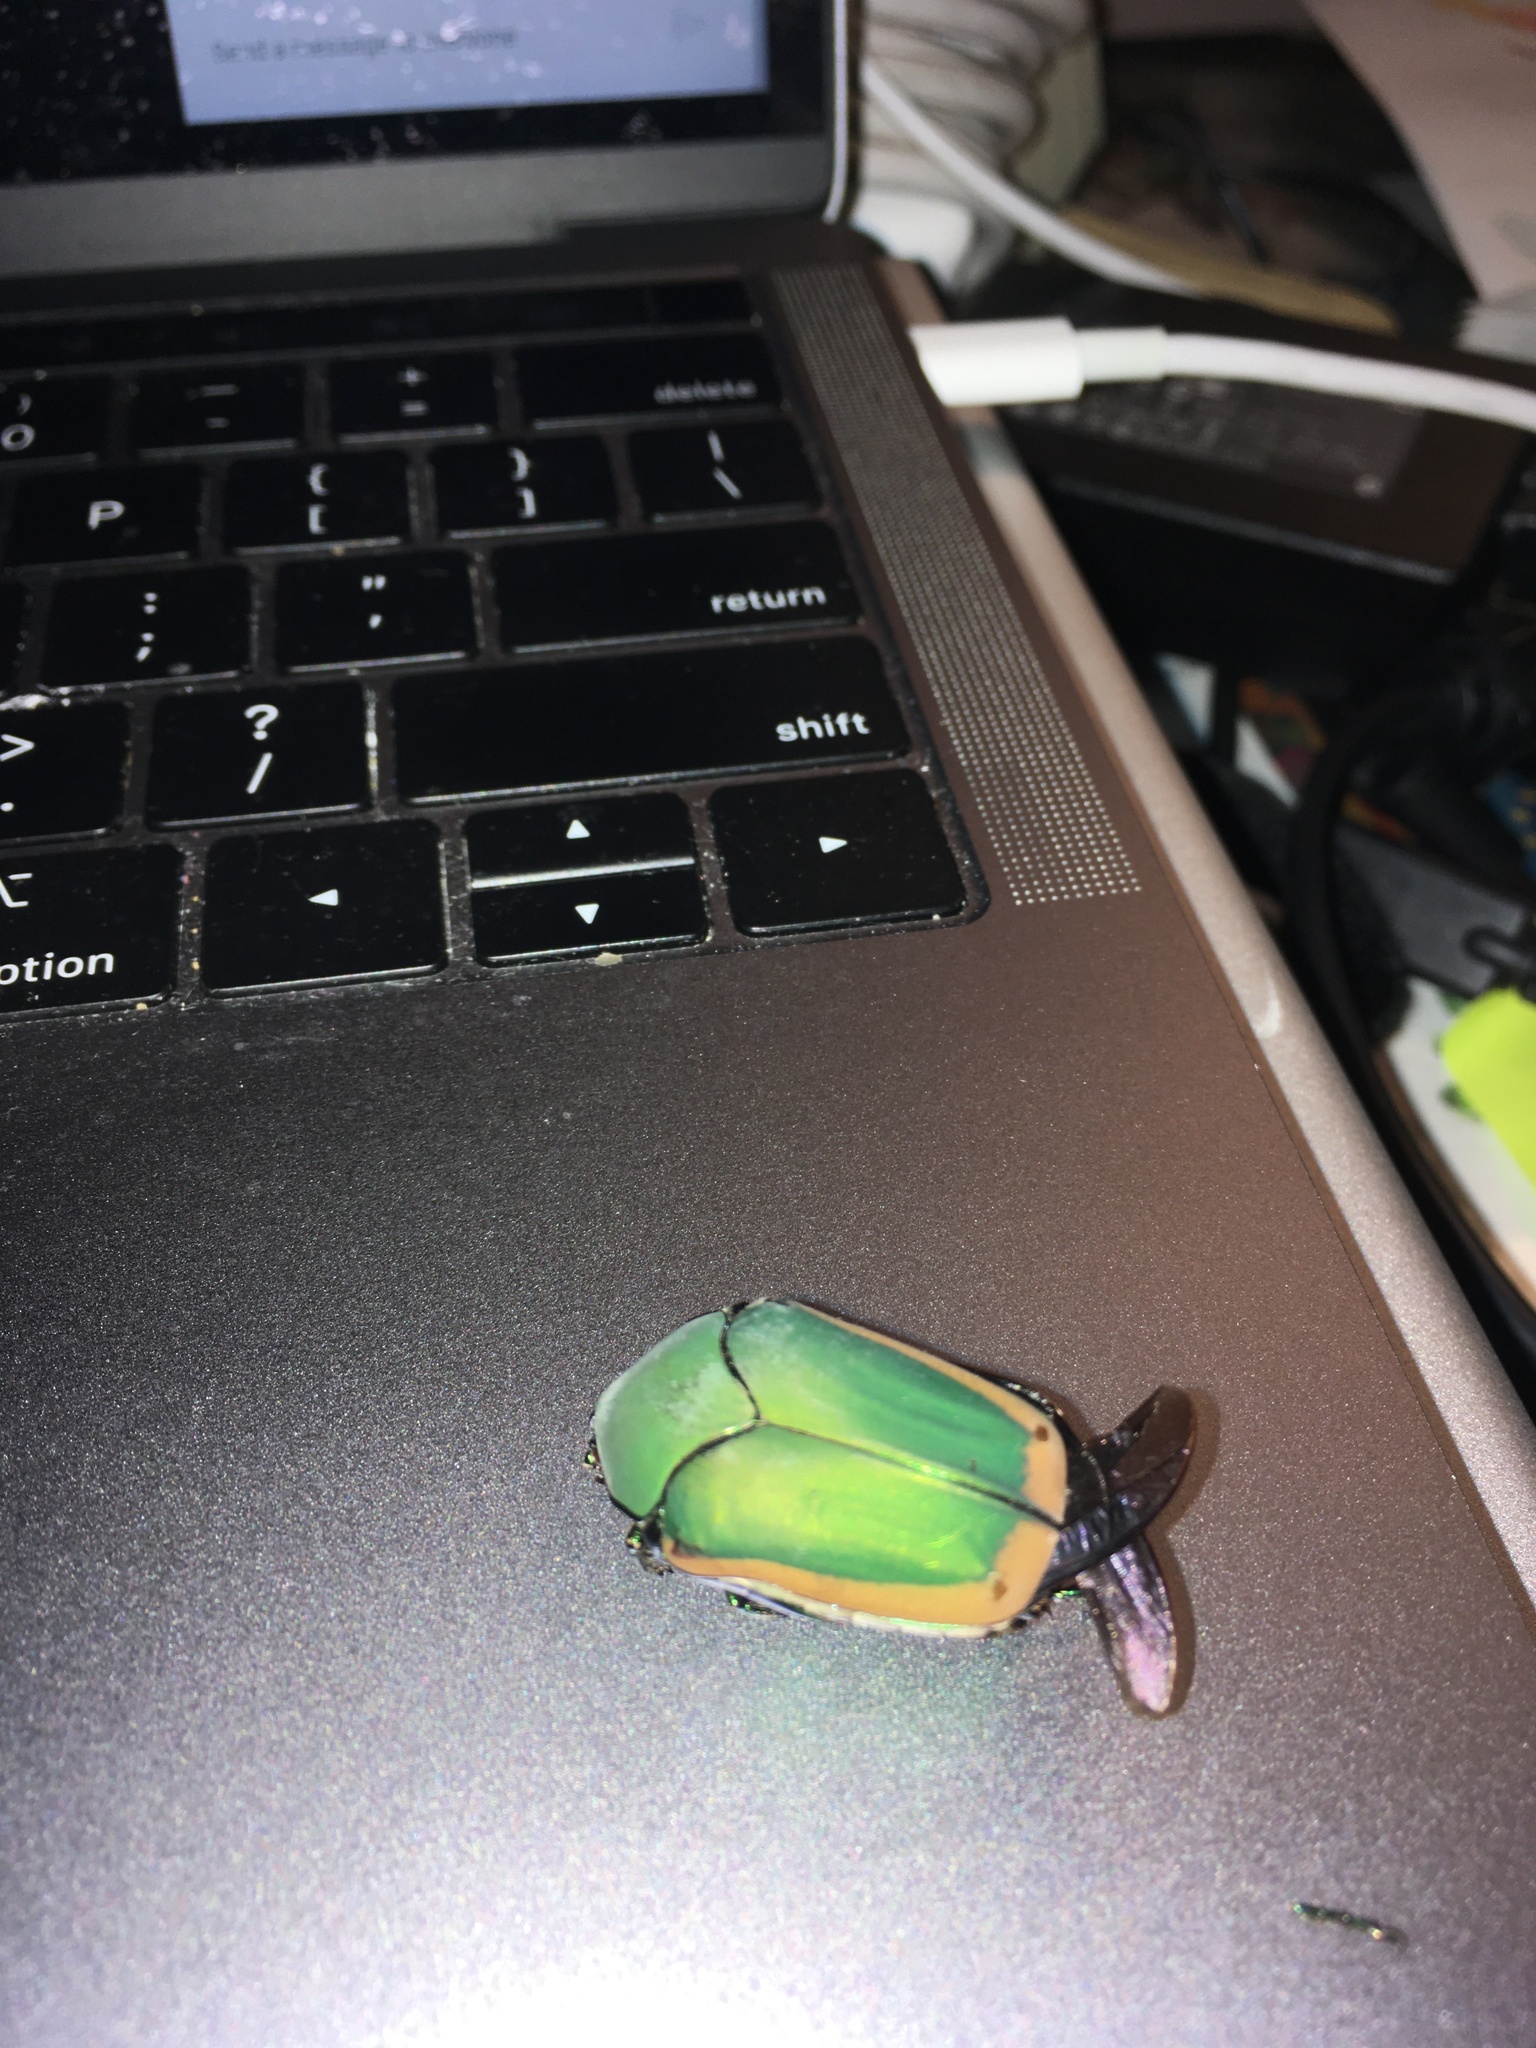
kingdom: Animalia
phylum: Arthropoda
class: Insecta
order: Coleoptera
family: Scarabaeidae
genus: Cotinis
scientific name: Cotinis mutabilis
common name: Figeater beetle
